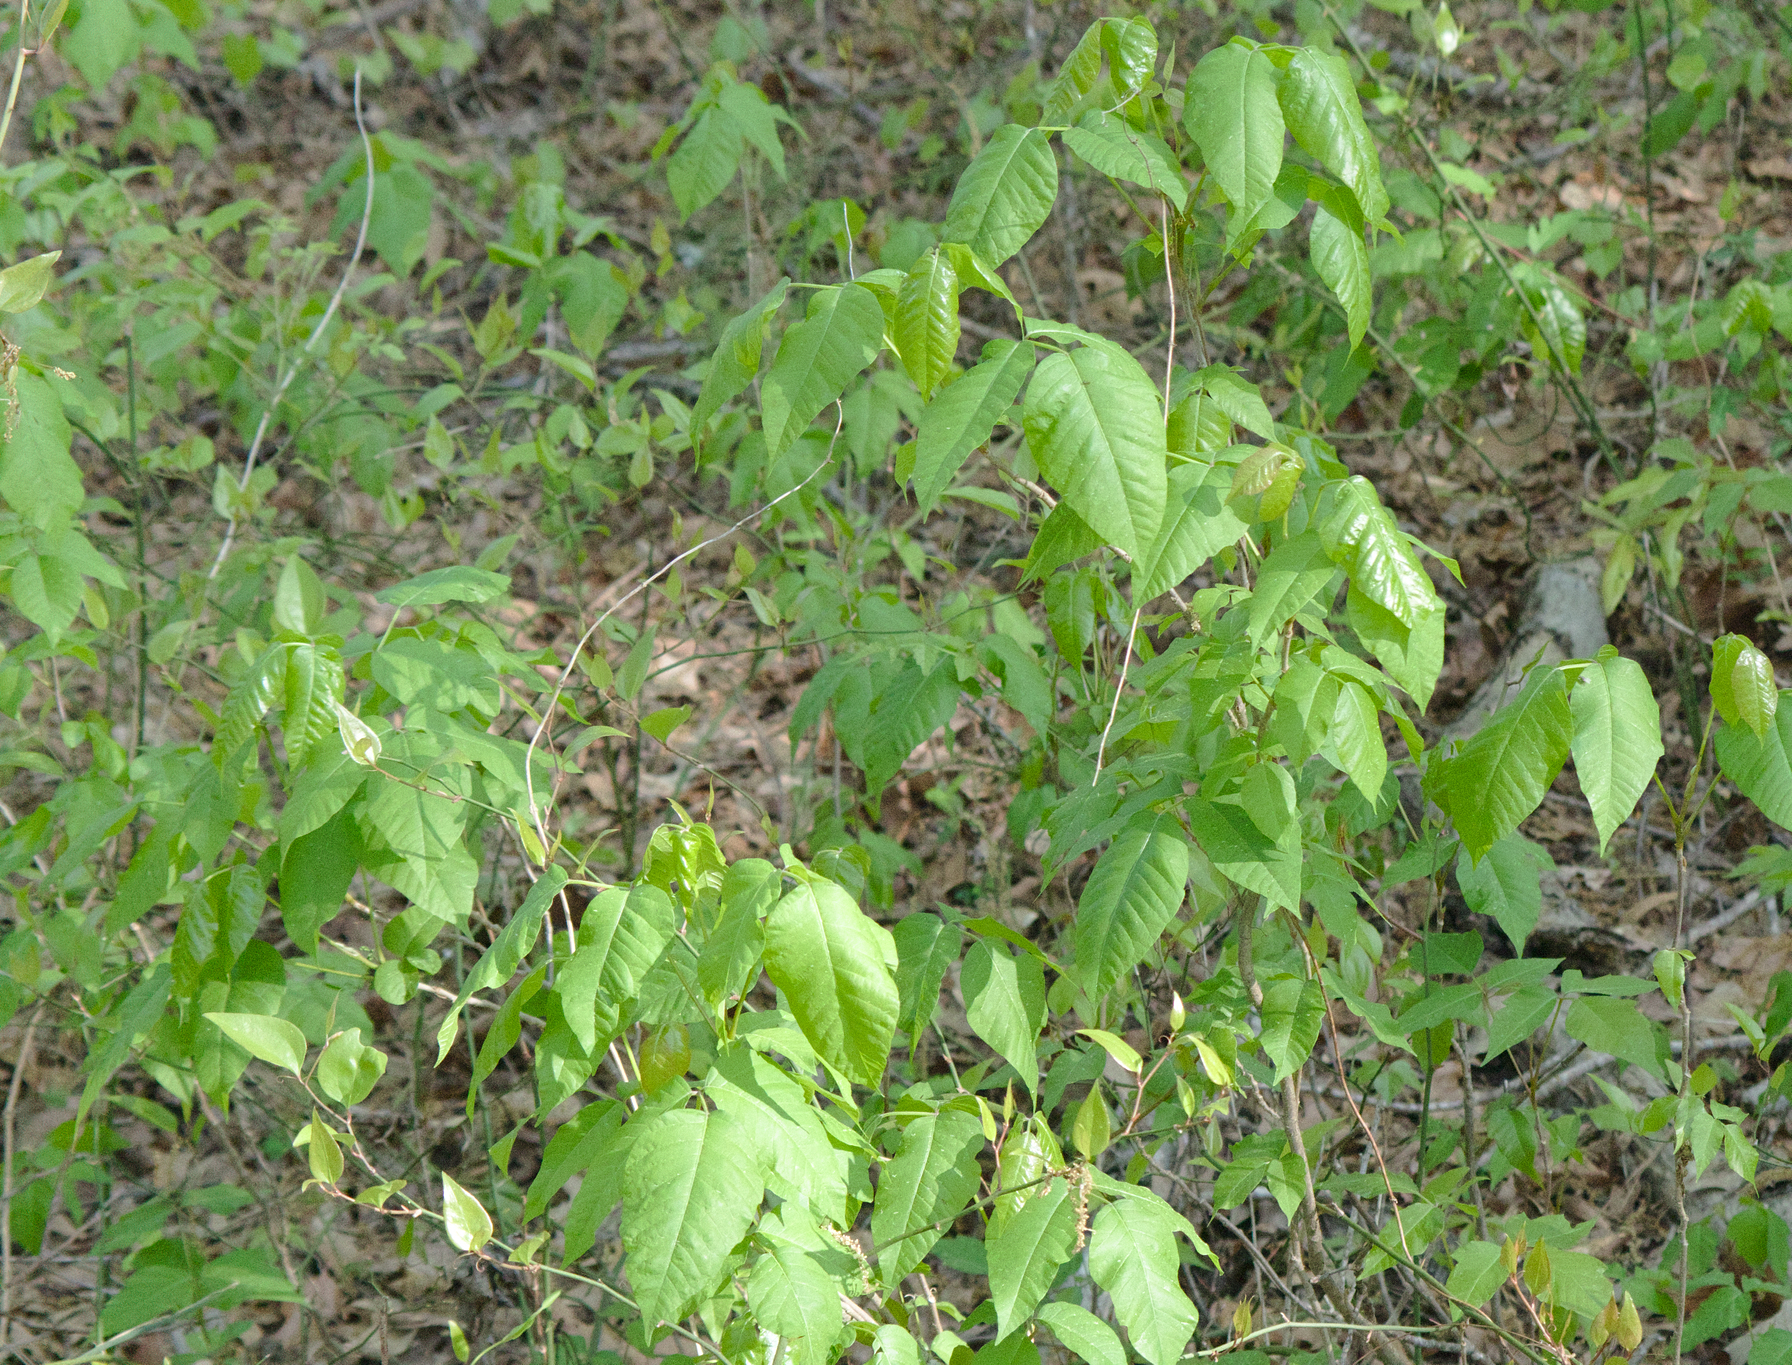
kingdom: Plantae
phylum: Tracheophyta
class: Magnoliopsida
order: Sapindales
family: Anacardiaceae
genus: Toxicodendron
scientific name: Toxicodendron radicans
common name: Poison ivy
